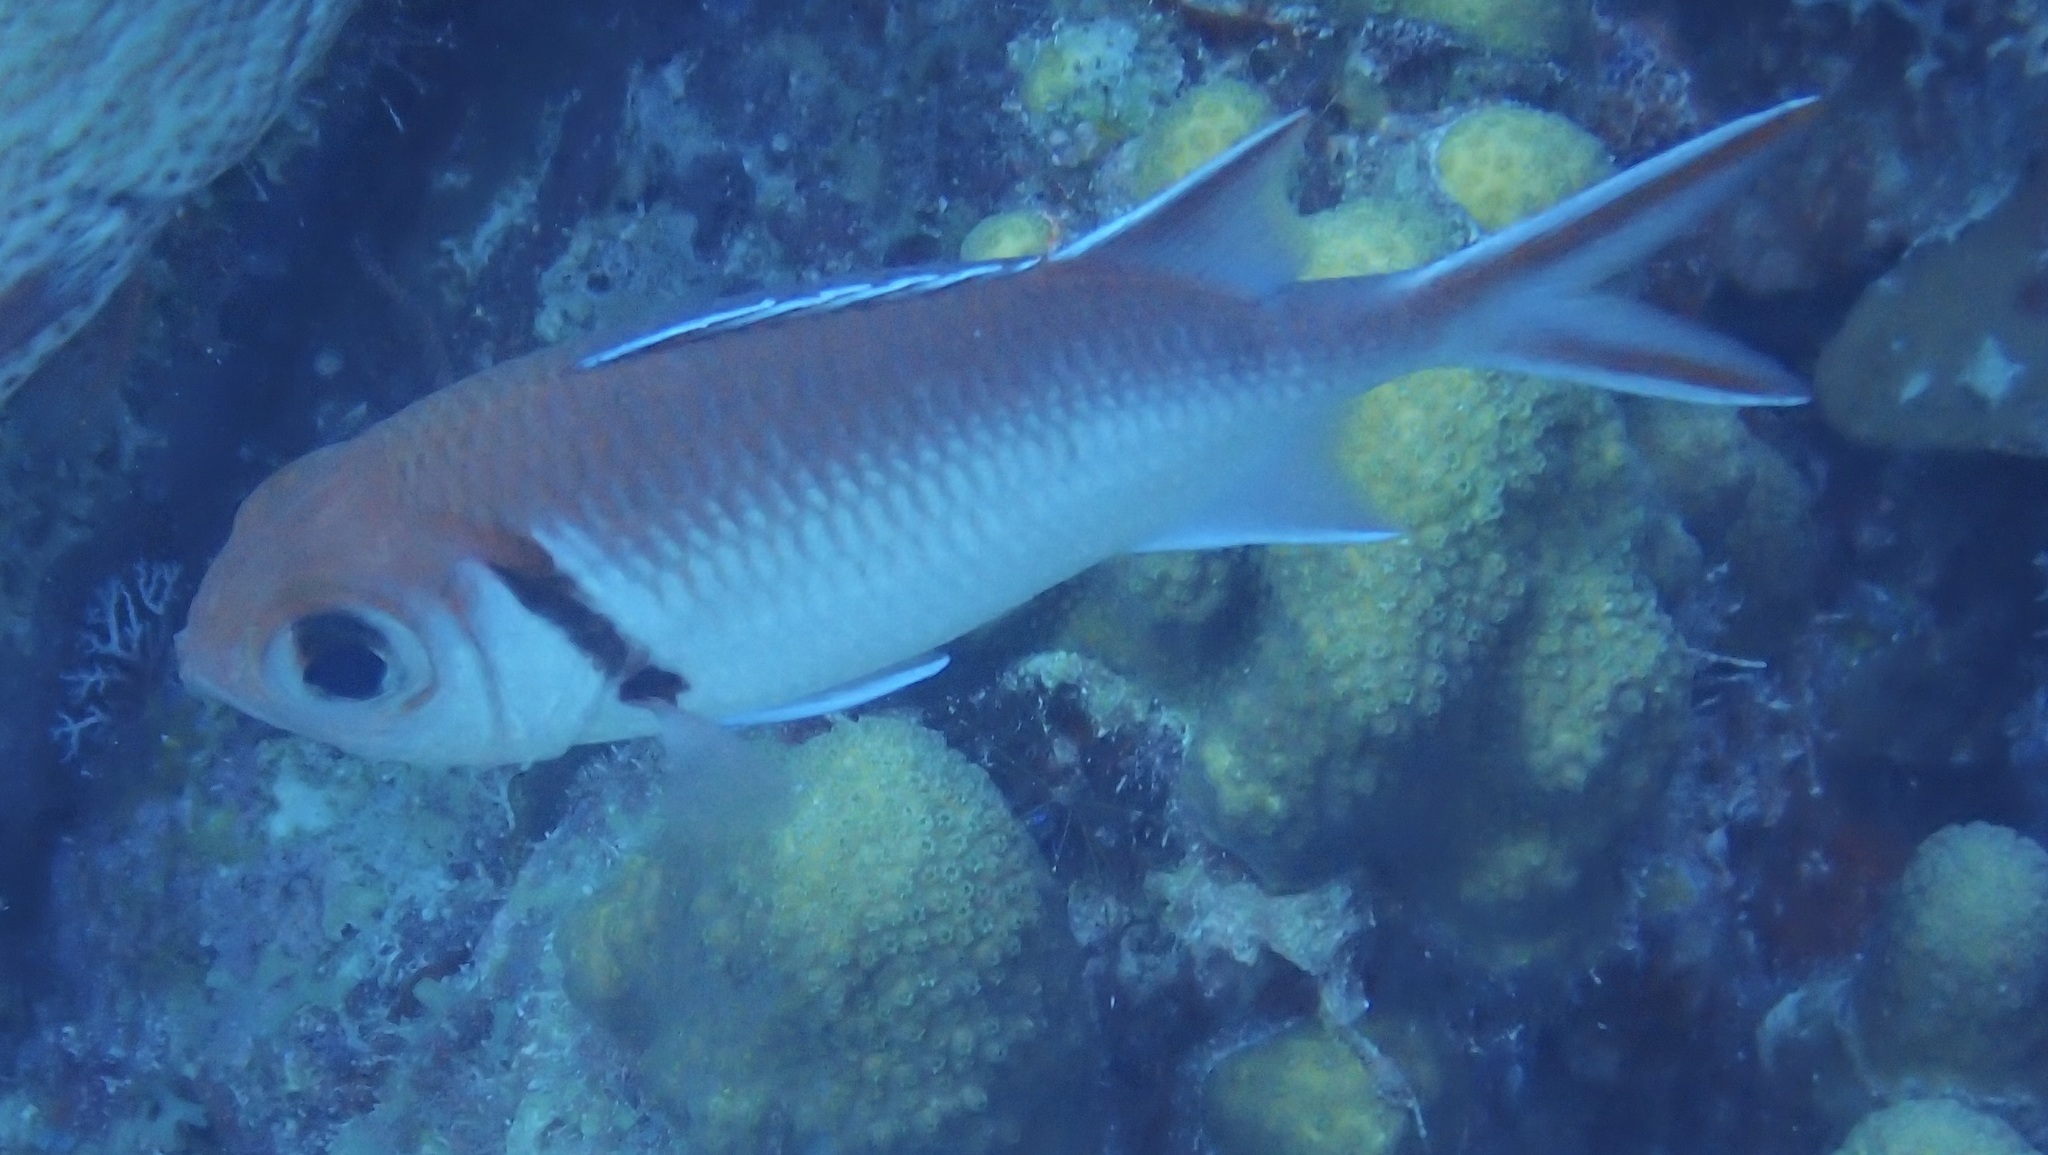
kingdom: Animalia
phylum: Chordata
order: Beryciformes
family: Holocentridae
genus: Myripristis
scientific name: Myripristis jacobus
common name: Blackbar soldierfish
